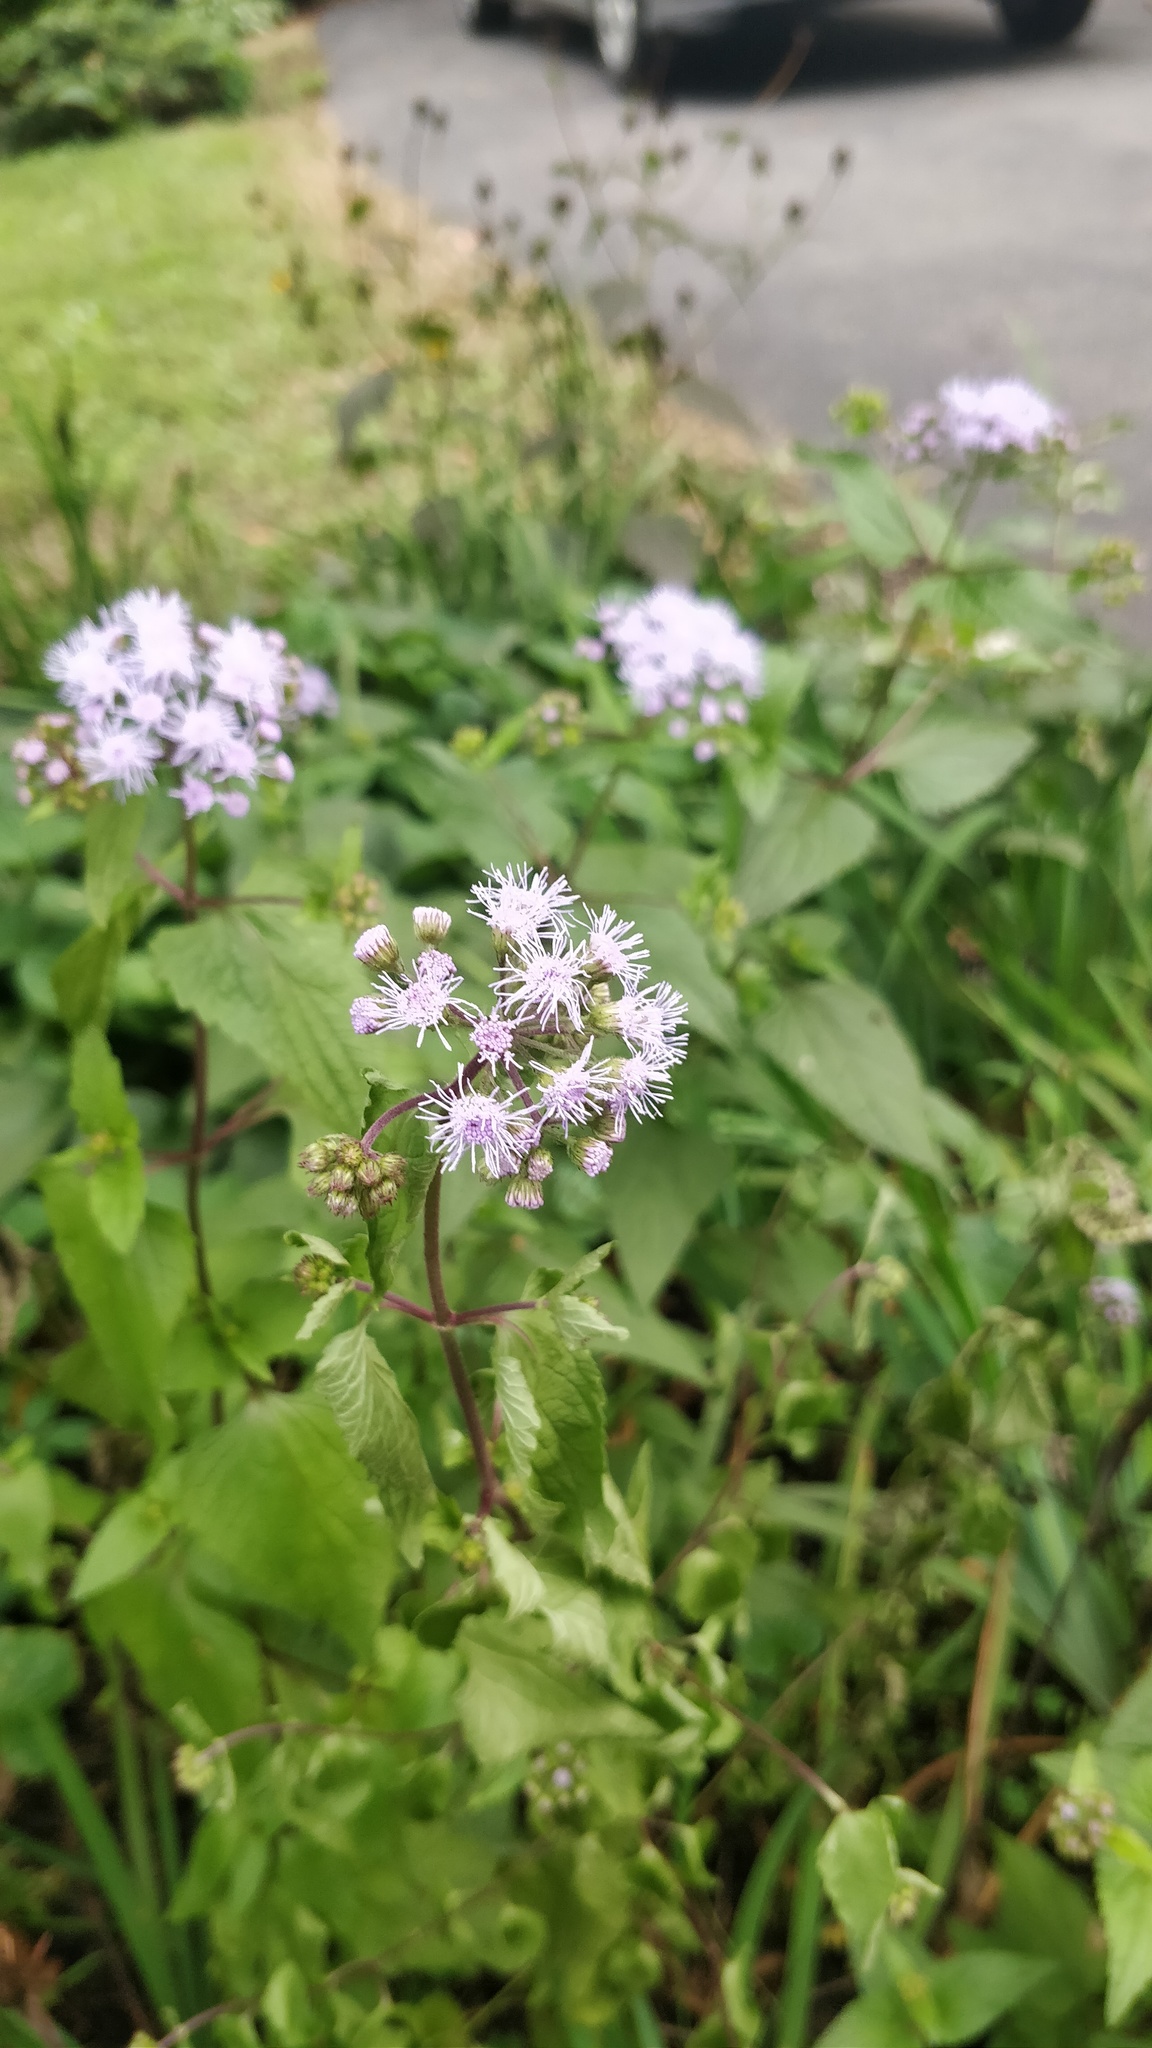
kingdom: Plantae
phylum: Tracheophyta
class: Magnoliopsida
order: Asterales
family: Asteraceae
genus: Conoclinium
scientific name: Conoclinium coelestinum
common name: Blue mistflower
